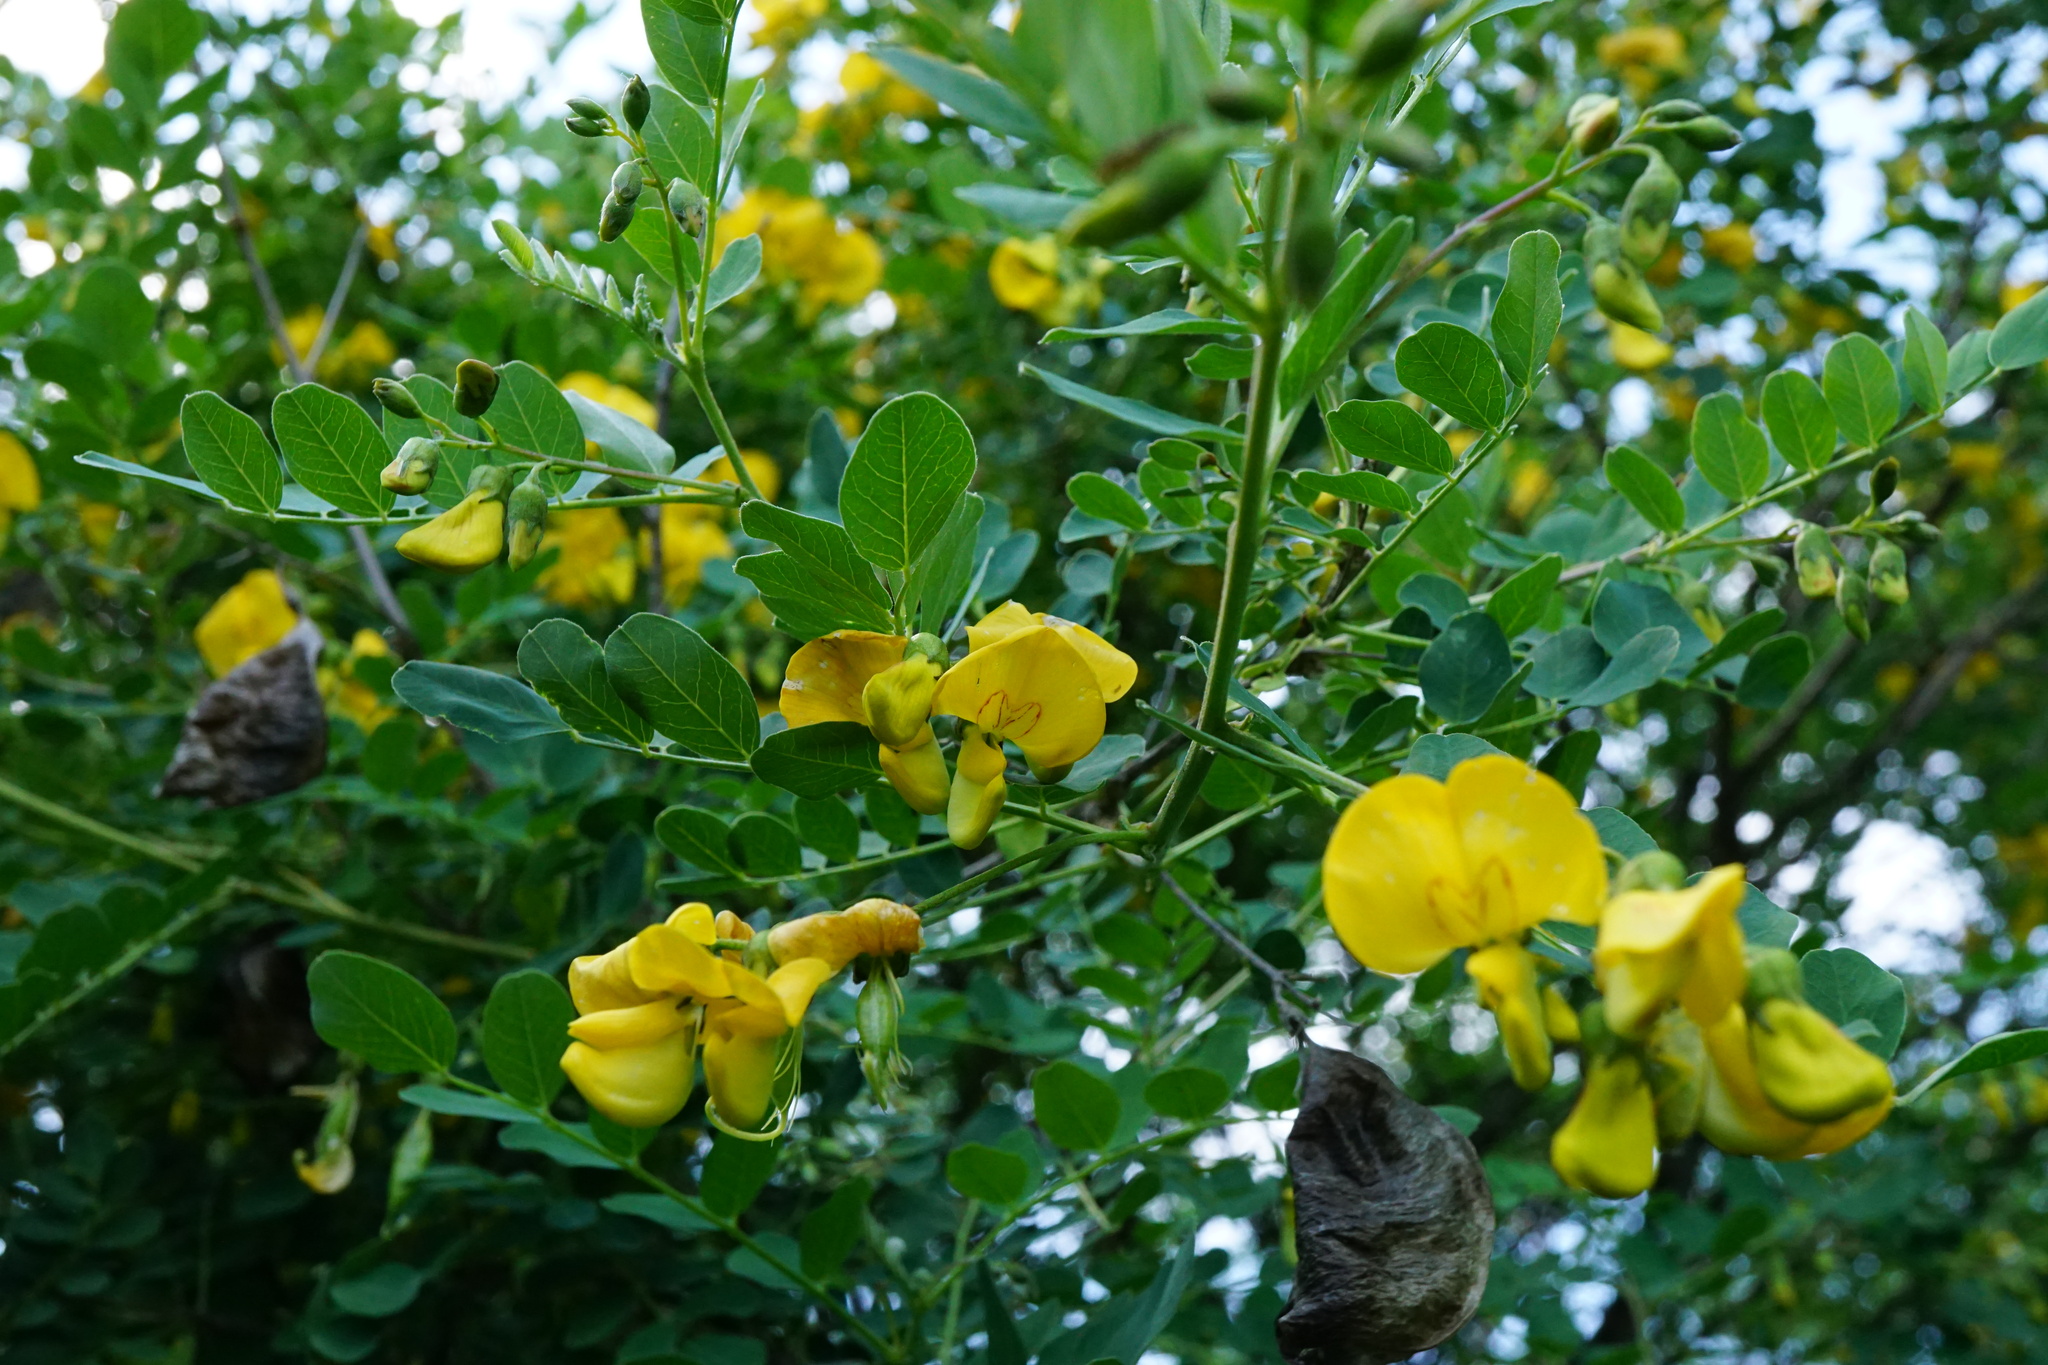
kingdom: Plantae
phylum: Tracheophyta
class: Magnoliopsida
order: Fabales
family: Fabaceae
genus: Colutea
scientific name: Colutea arborescens
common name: Bladder-senna
